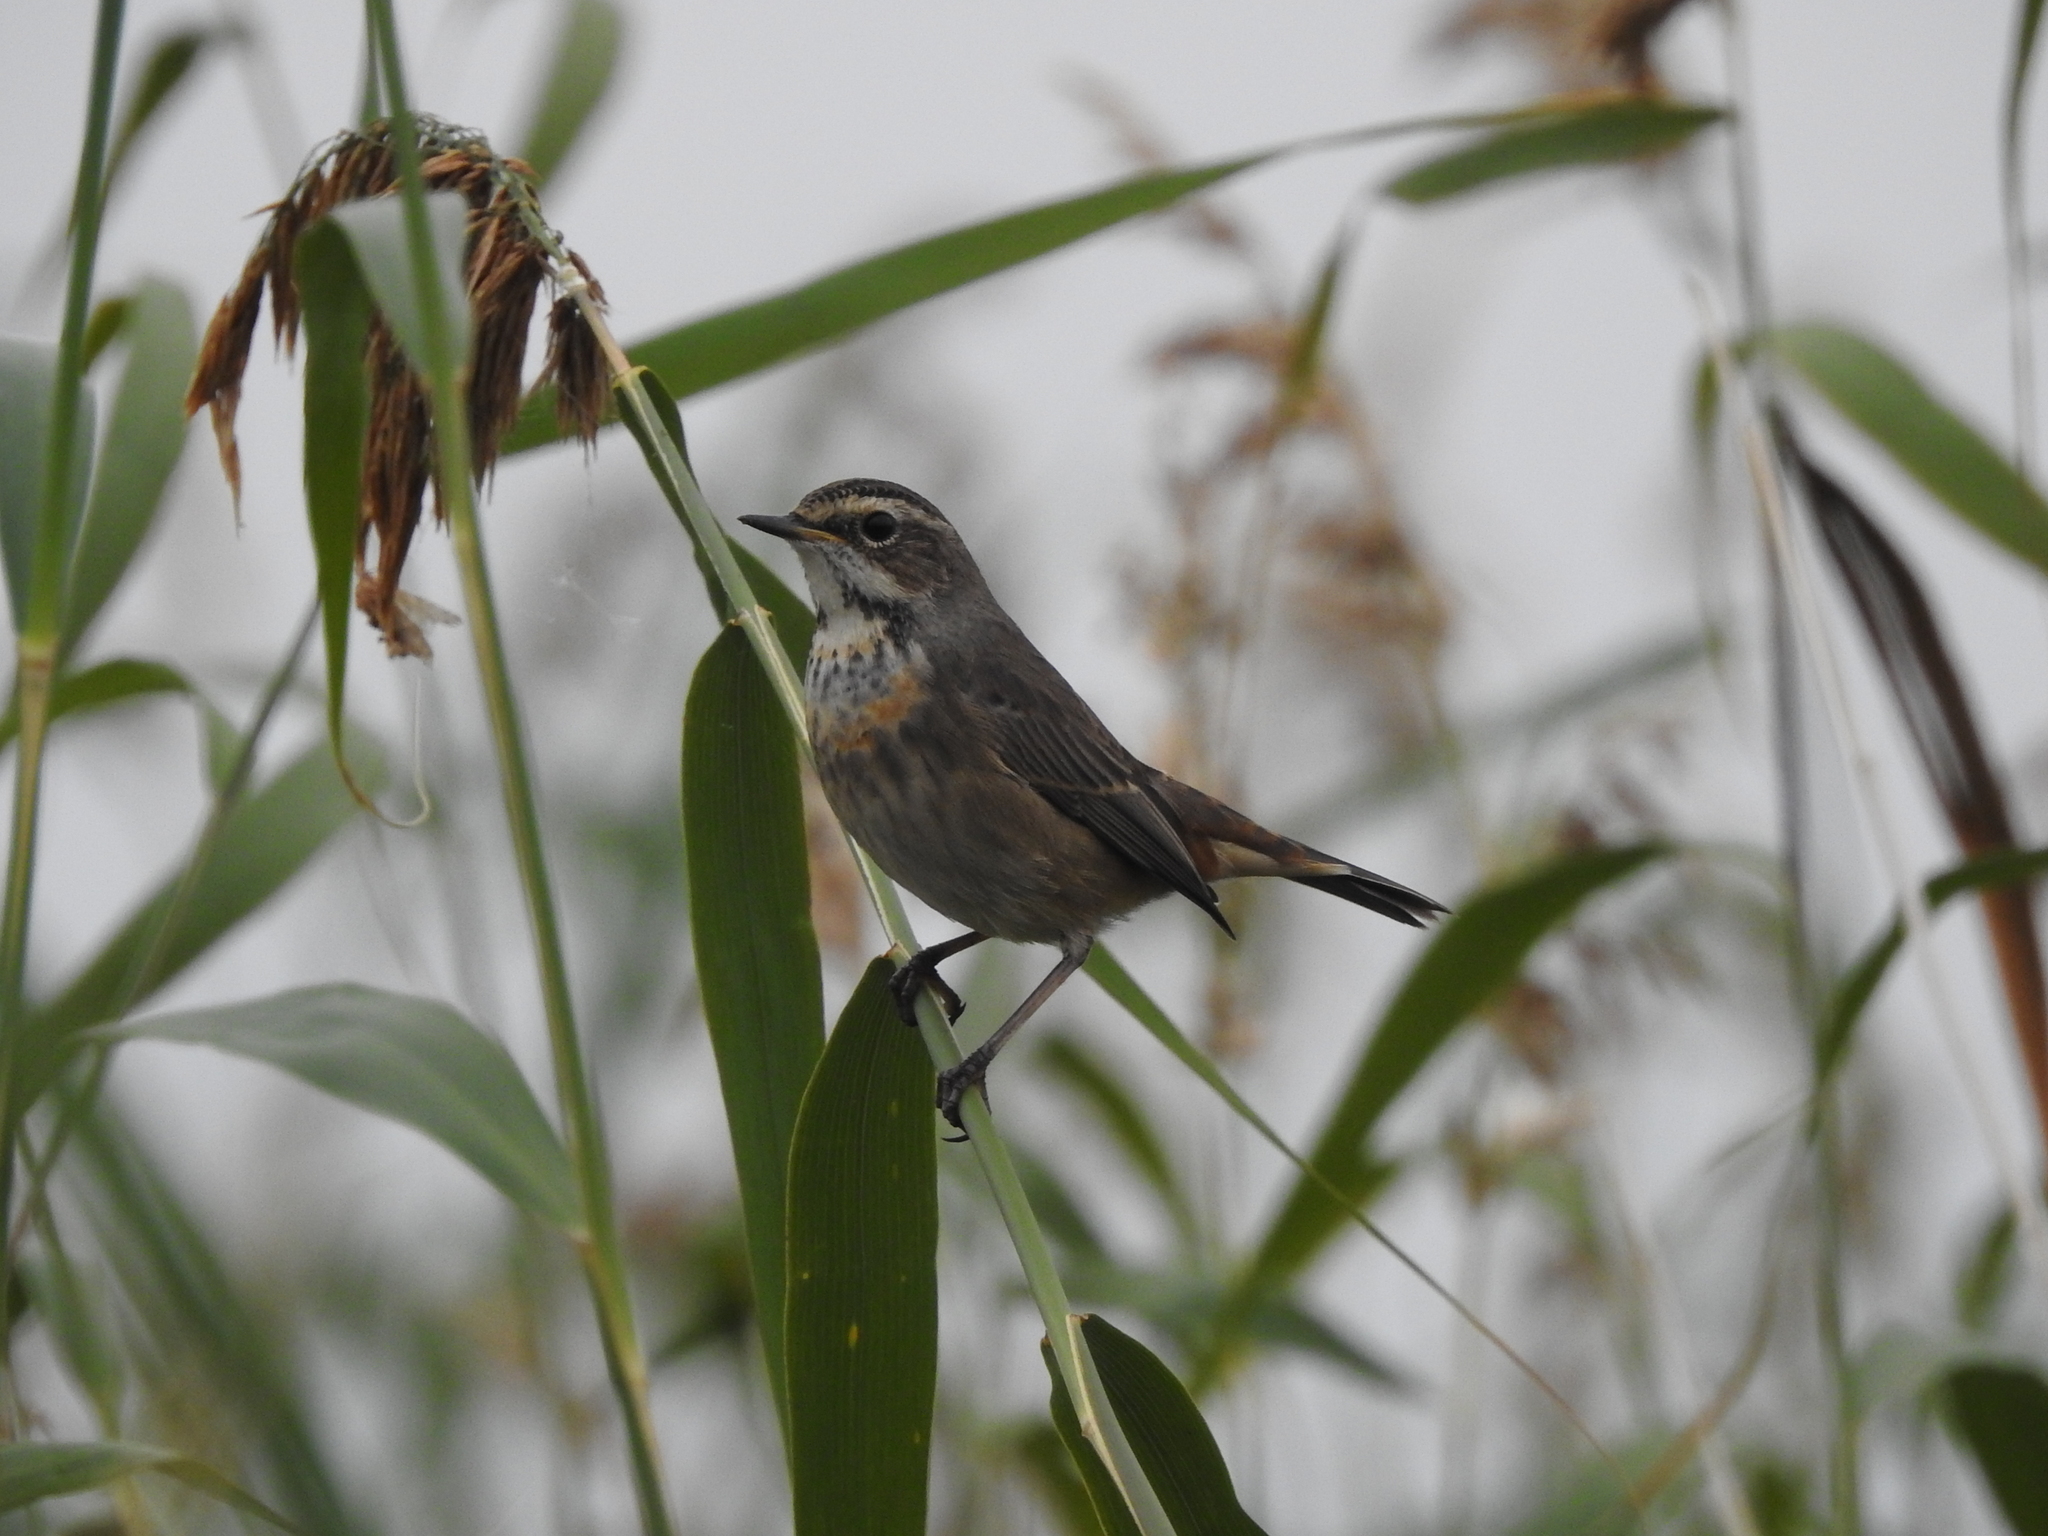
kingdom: Animalia
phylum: Chordata
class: Aves
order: Passeriformes
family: Muscicapidae
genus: Luscinia
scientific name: Luscinia svecica
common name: Bluethroat
